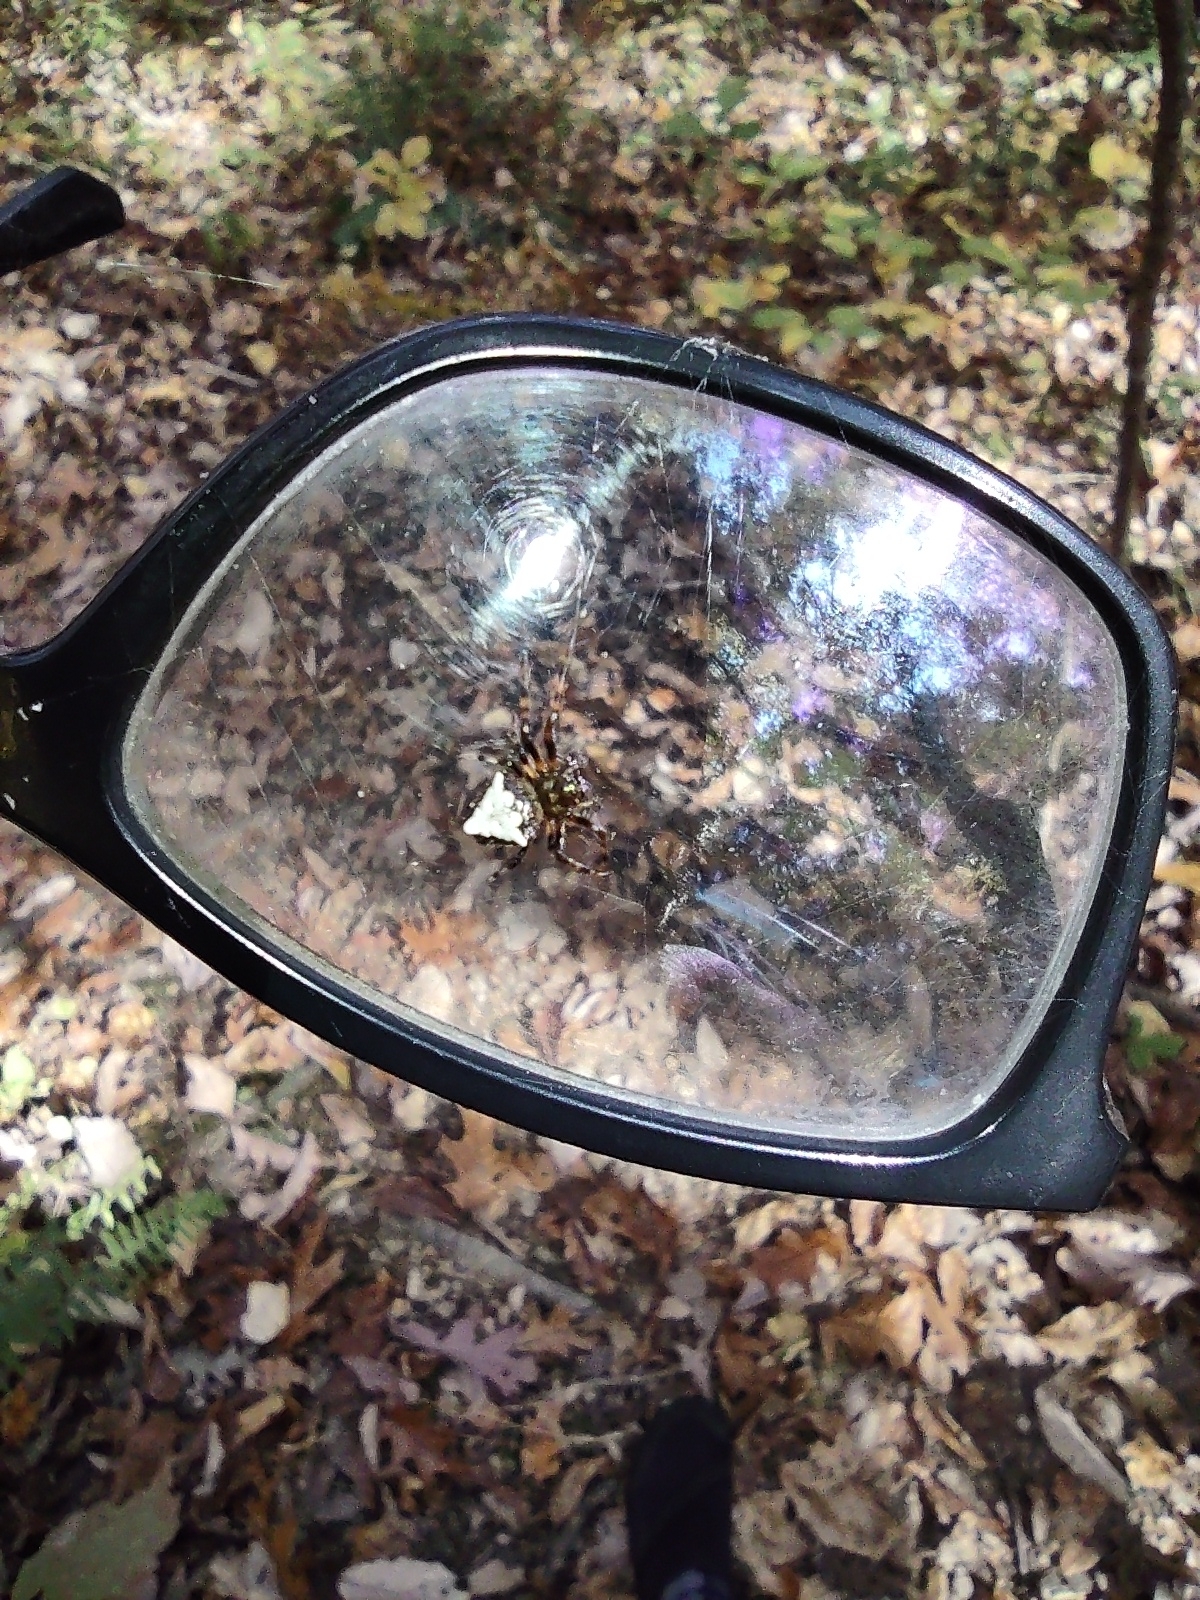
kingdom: Animalia
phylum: Arthropoda
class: Arachnida
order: Araneae
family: Araneidae
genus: Verrucosa
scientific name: Verrucosa arenata
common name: Orb weavers
